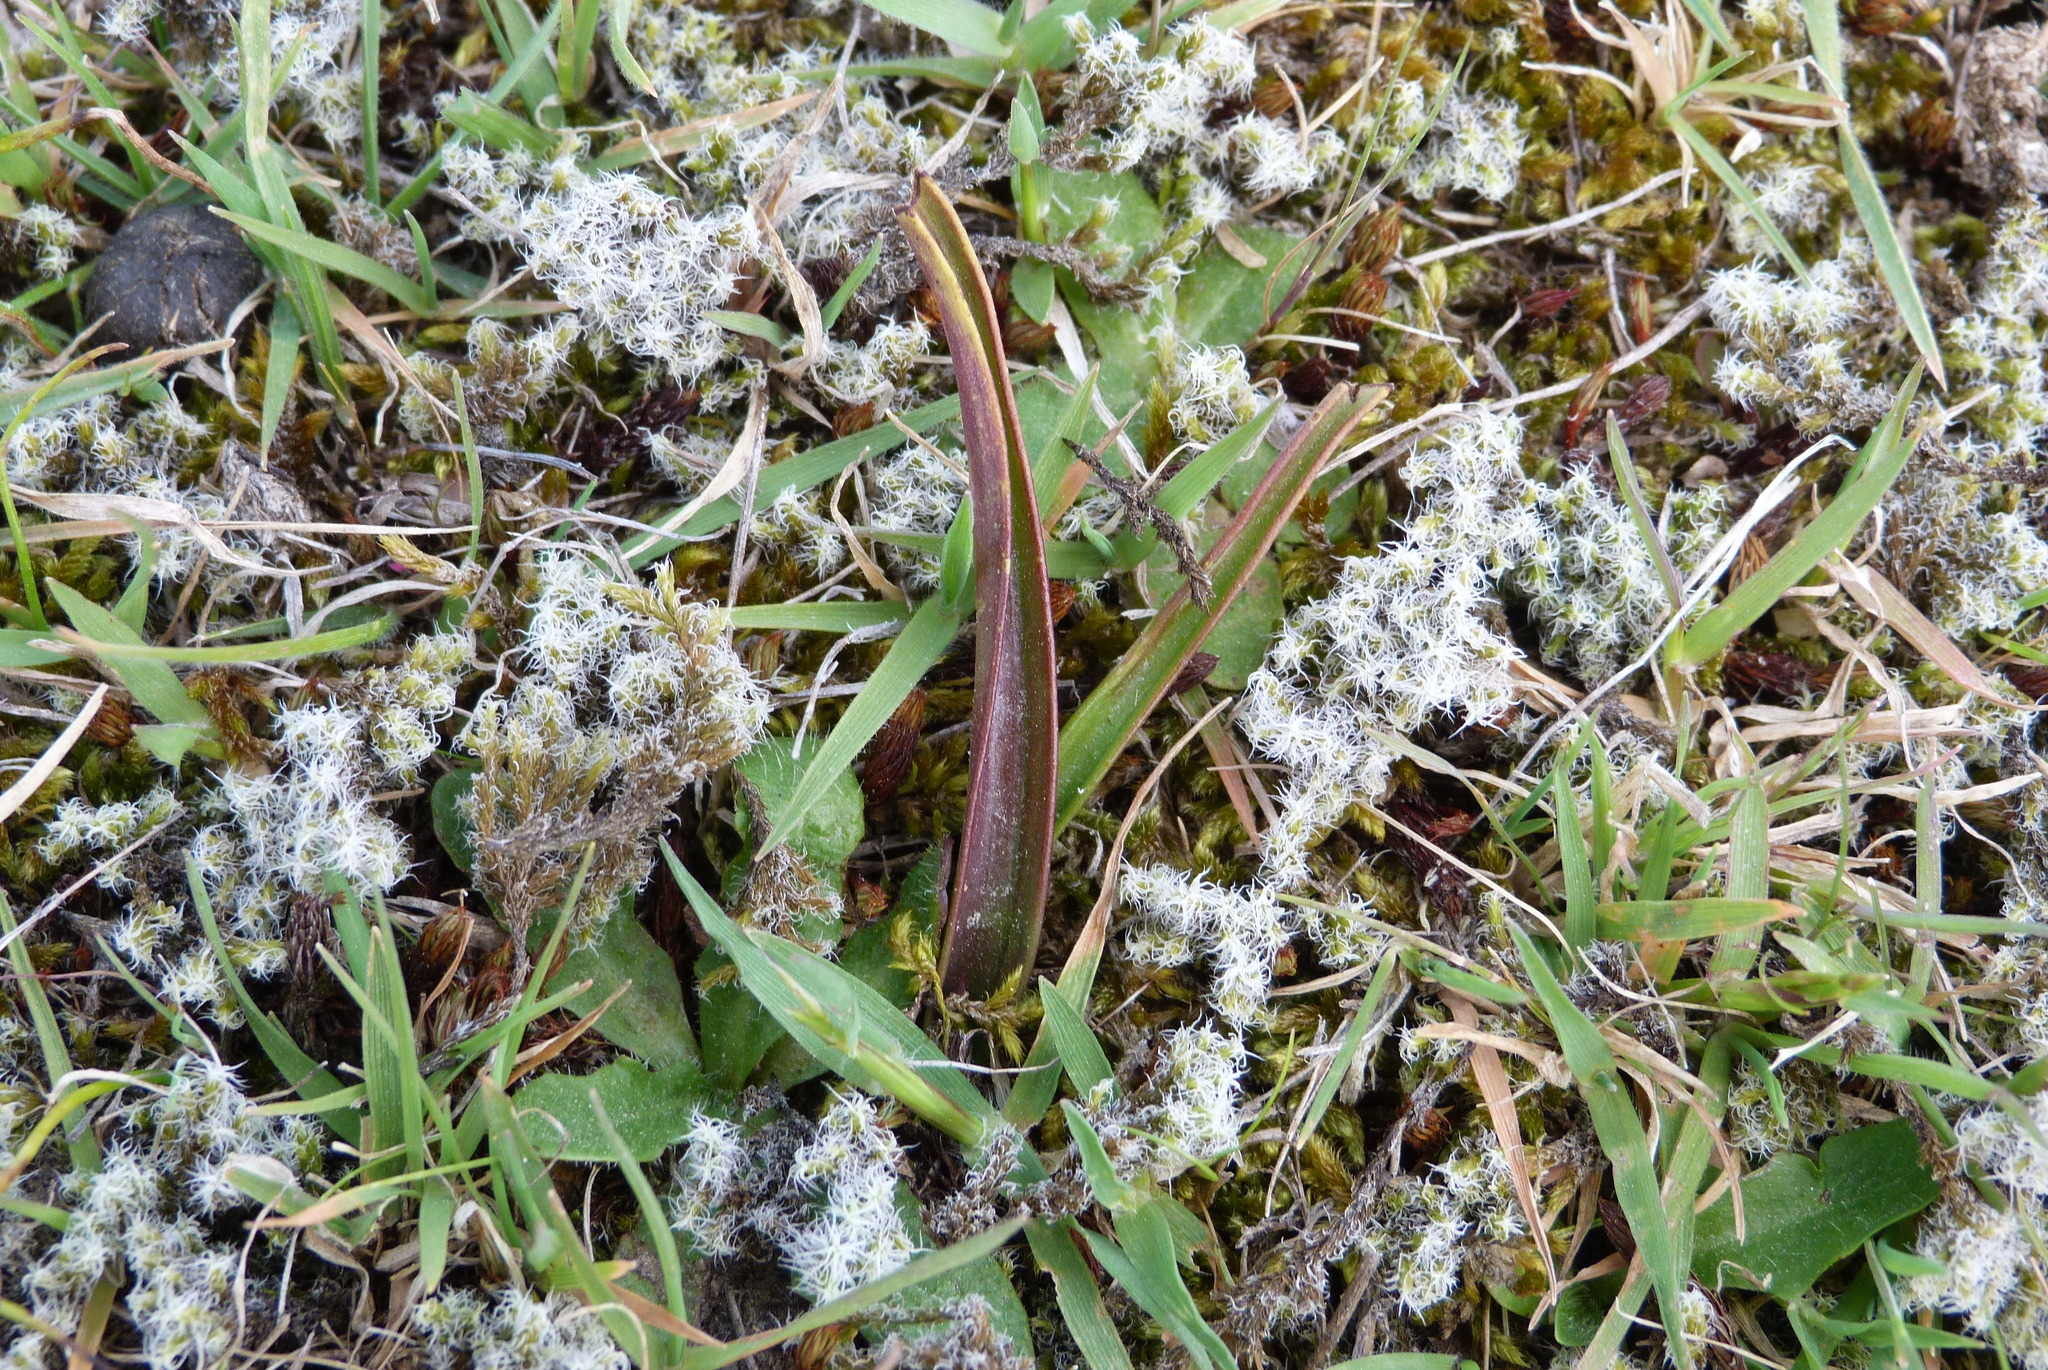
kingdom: Plantae
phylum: Tracheophyta
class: Liliopsida
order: Asparagales
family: Orchidaceae
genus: Thelymitra
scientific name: Thelymitra longifolia
